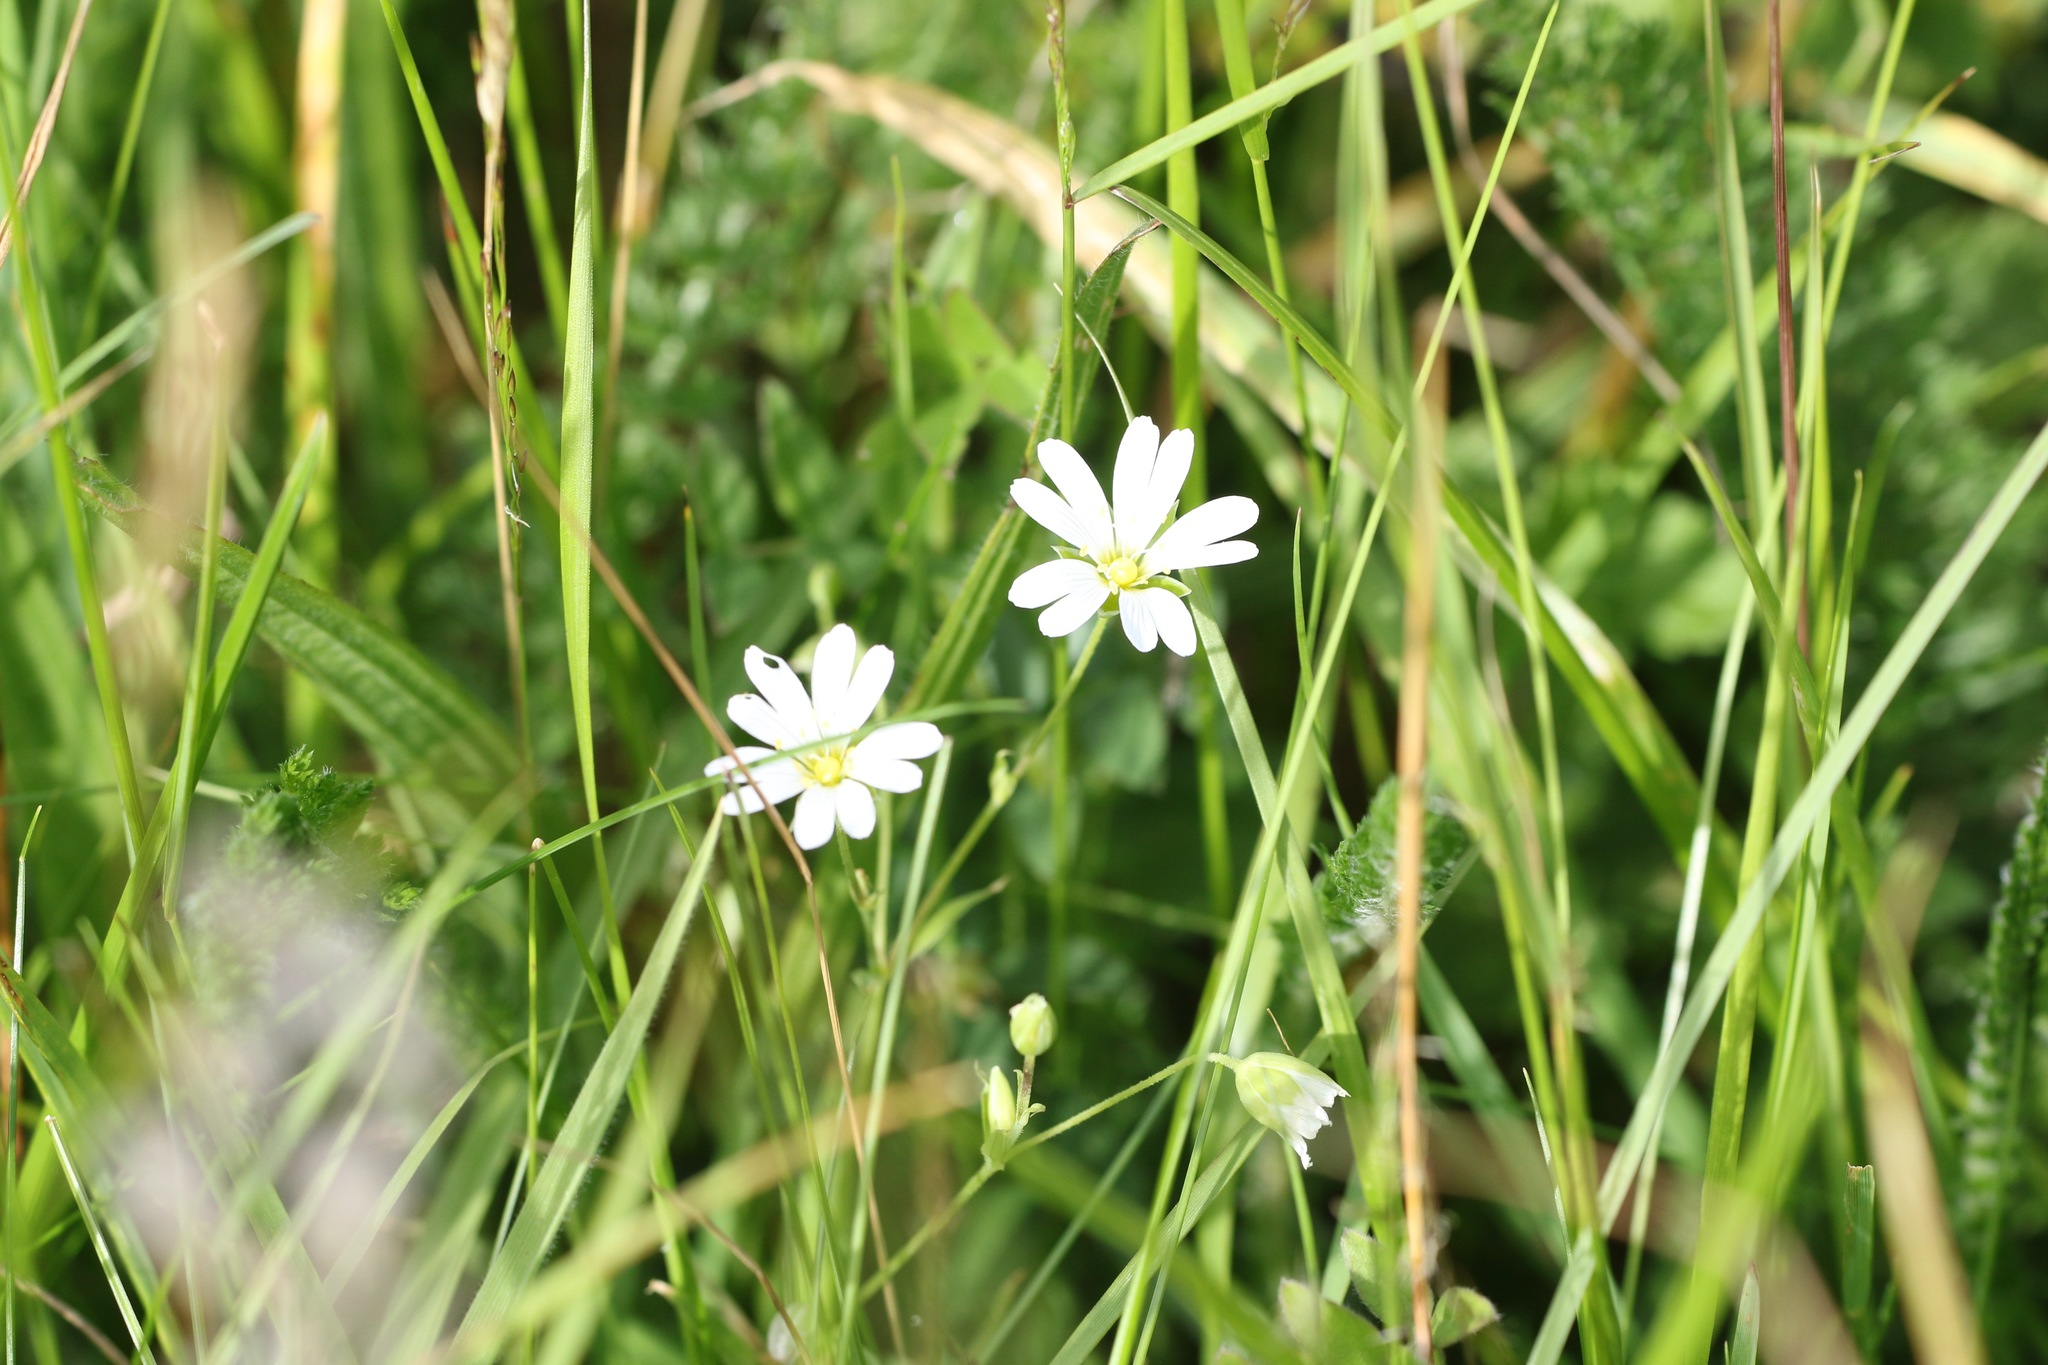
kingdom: Plantae
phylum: Tracheophyta
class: Magnoliopsida
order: Caryophyllales
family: Caryophyllaceae
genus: Rabelera
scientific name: Rabelera holostea
